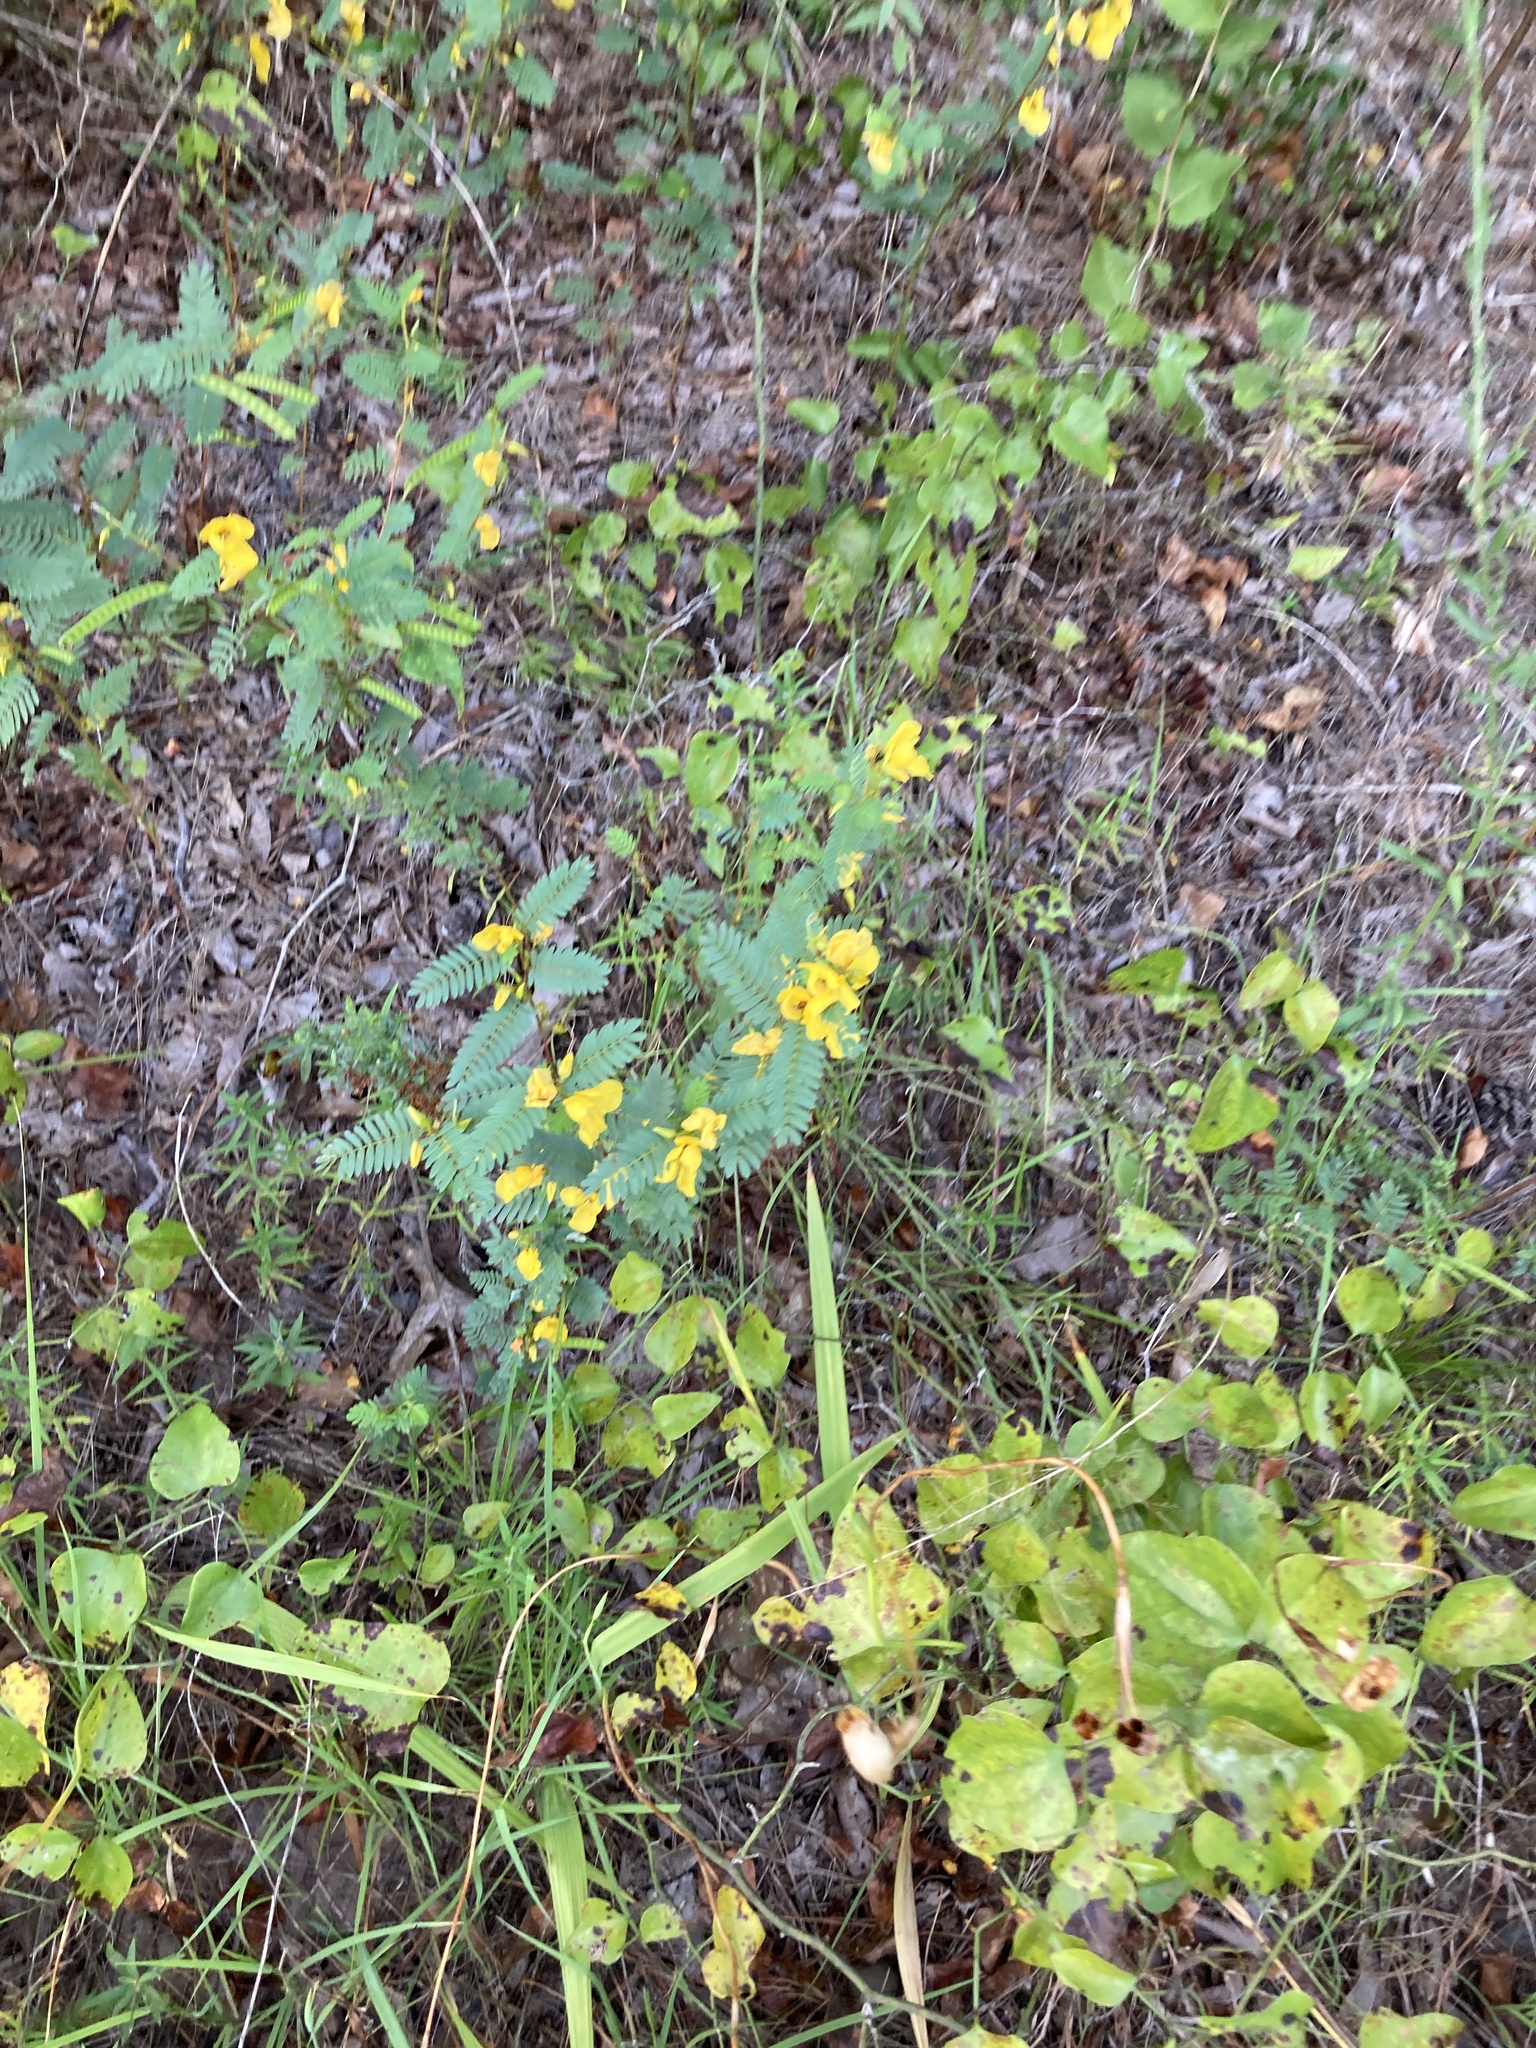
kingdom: Plantae
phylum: Tracheophyta
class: Magnoliopsida
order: Fabales
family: Fabaceae
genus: Chamaecrista
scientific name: Chamaecrista fasciculata
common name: Golden cassia
